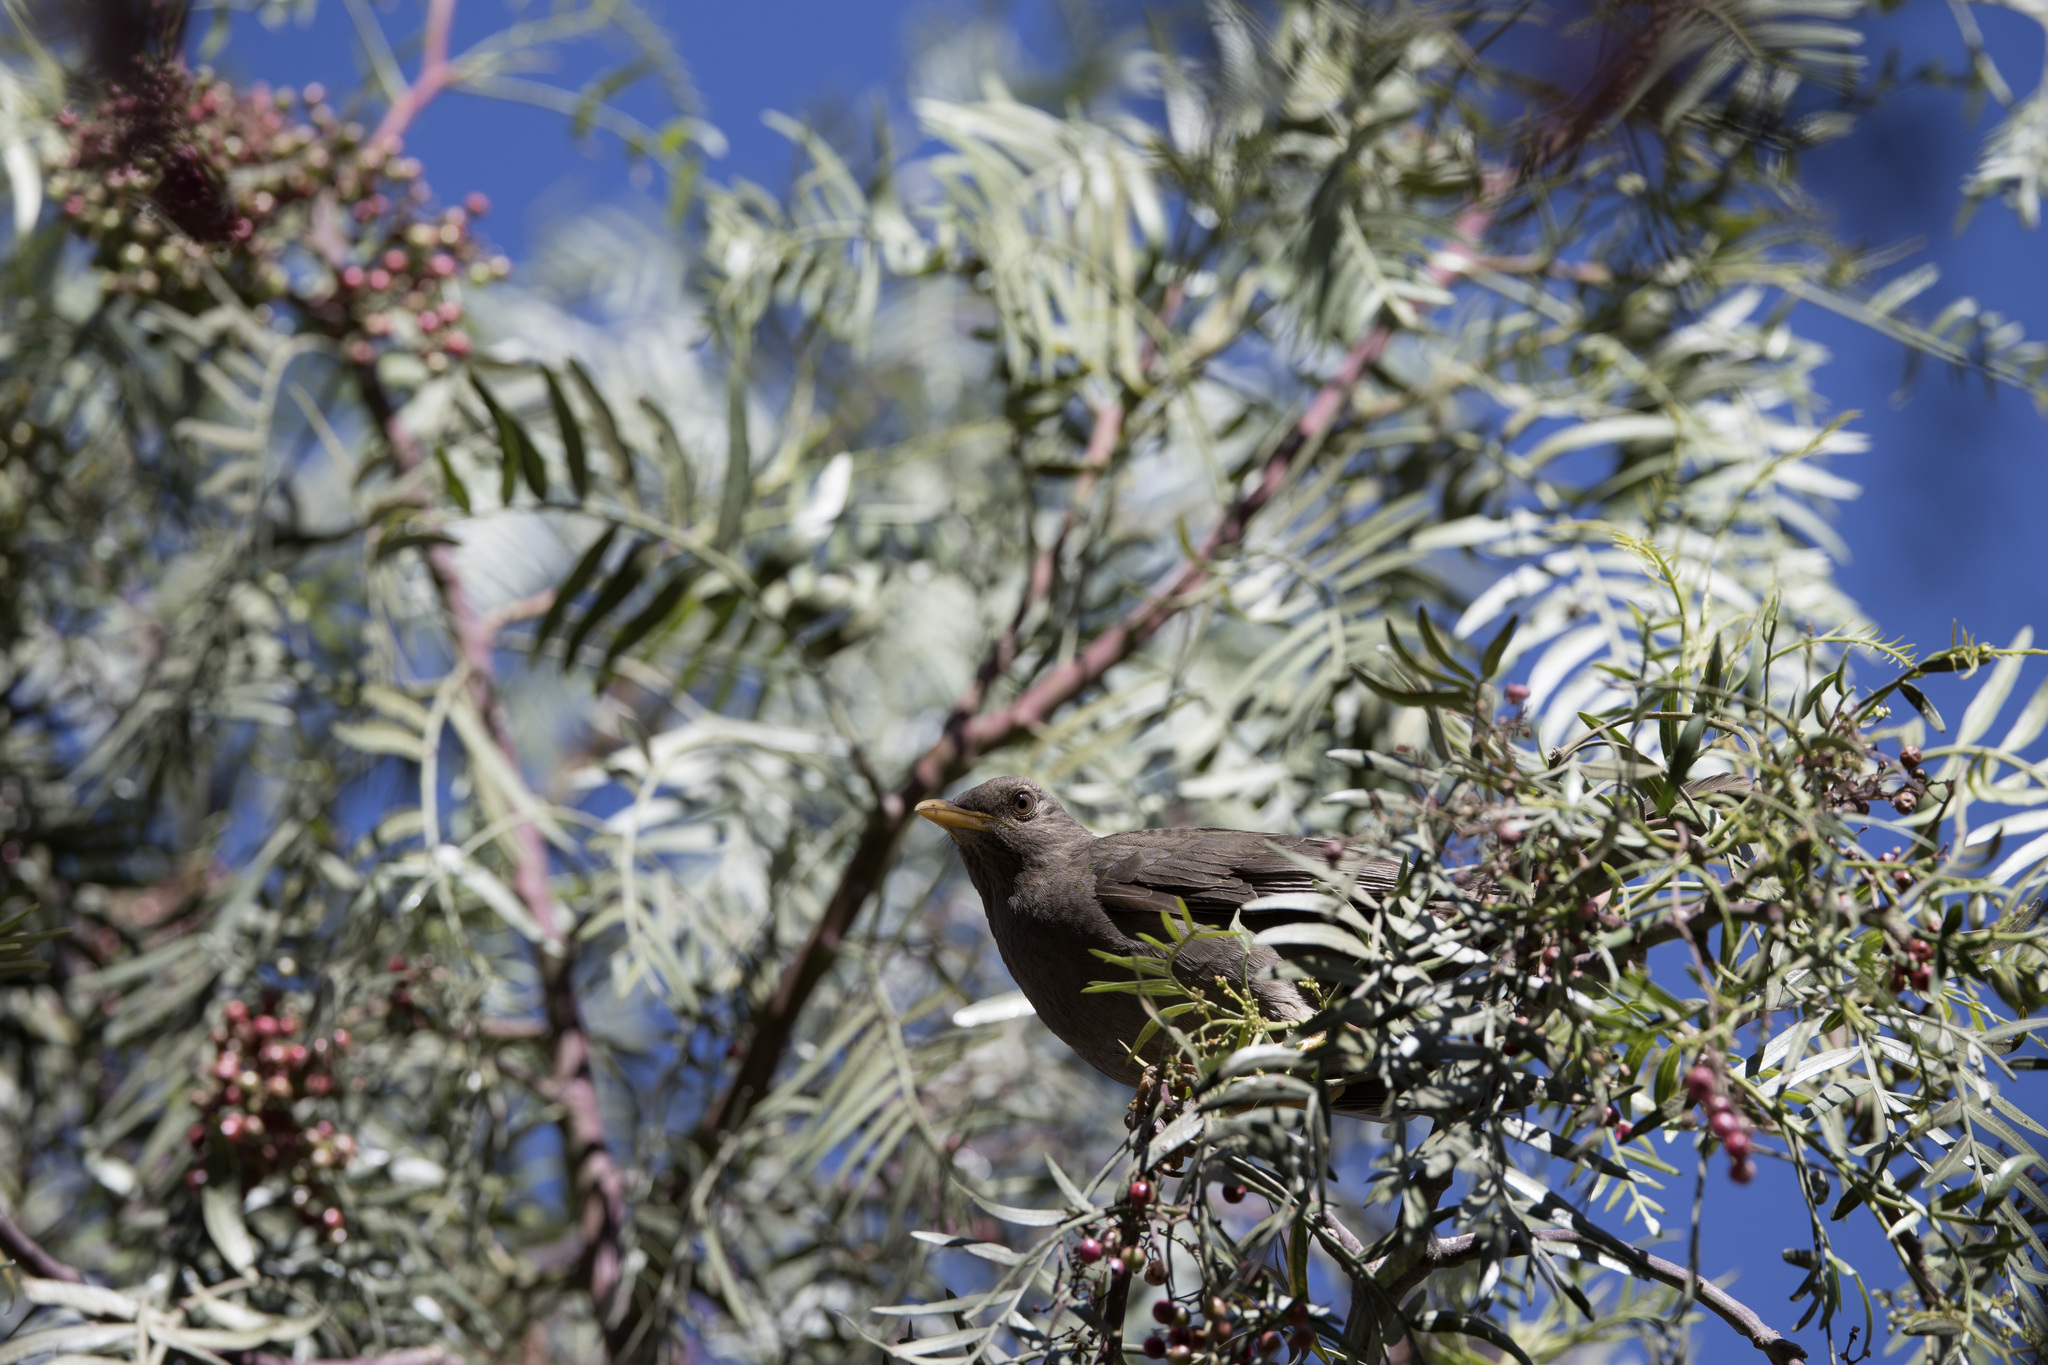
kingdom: Animalia
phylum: Chordata
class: Aves
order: Passeriformes
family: Turdidae
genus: Turdus
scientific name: Turdus chiguanco
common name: Chiguanco thrush
